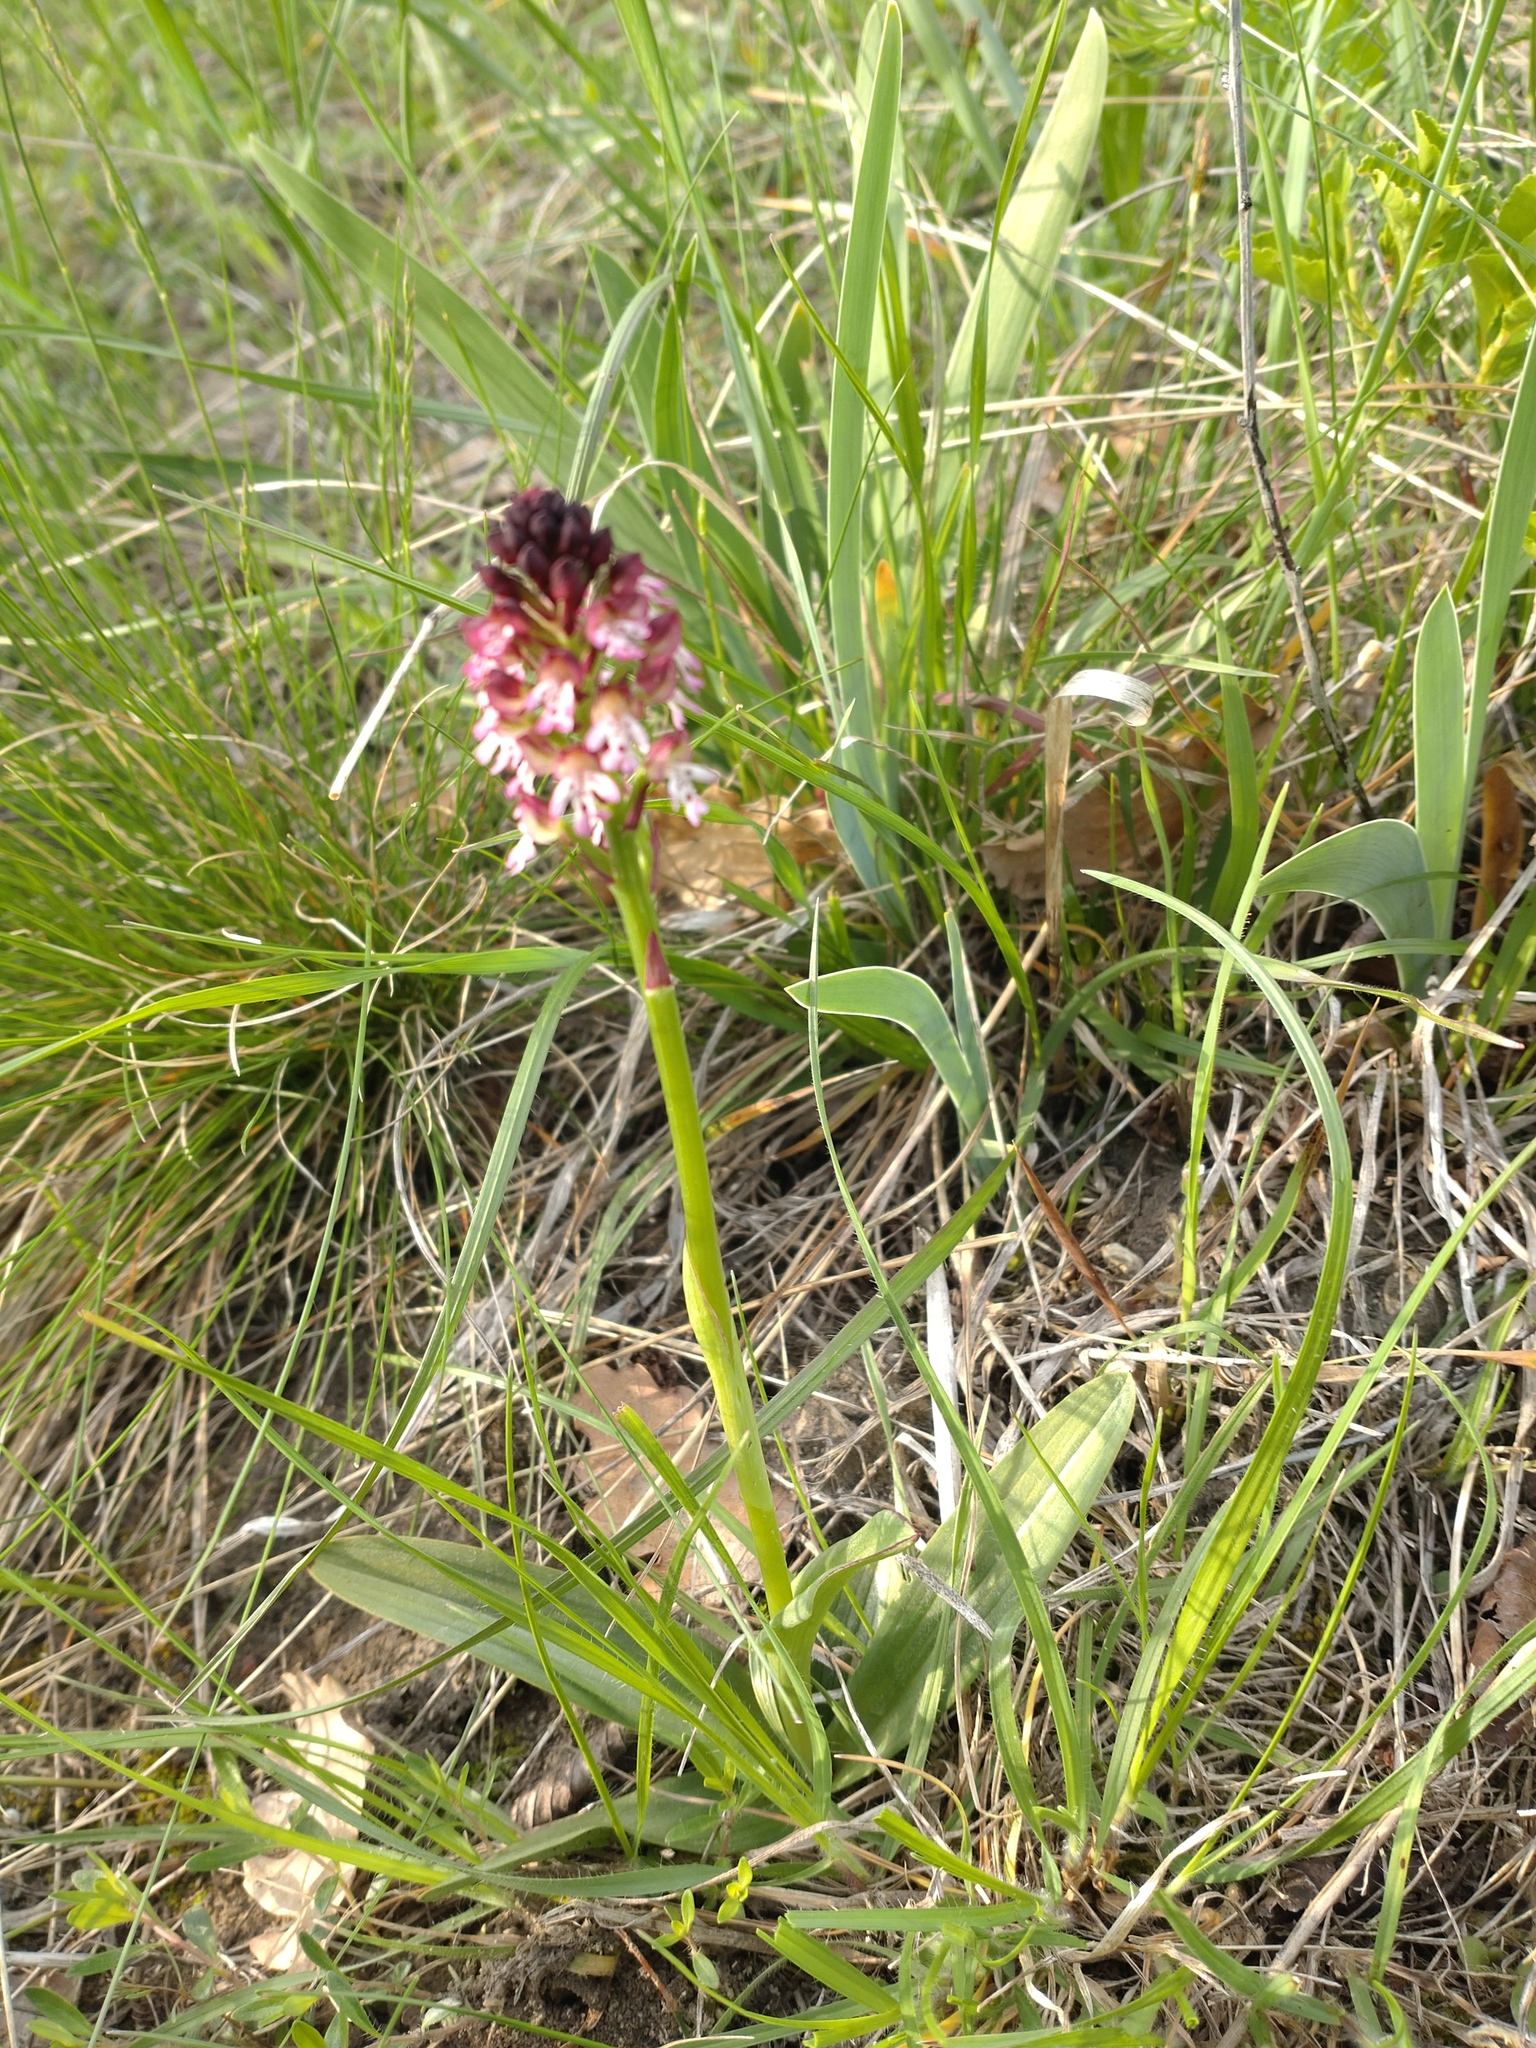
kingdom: Plantae
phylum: Tracheophyta
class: Liliopsida
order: Asparagales
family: Orchidaceae
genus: Neotinea
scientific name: Neotinea ustulata
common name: Burnt orchid
